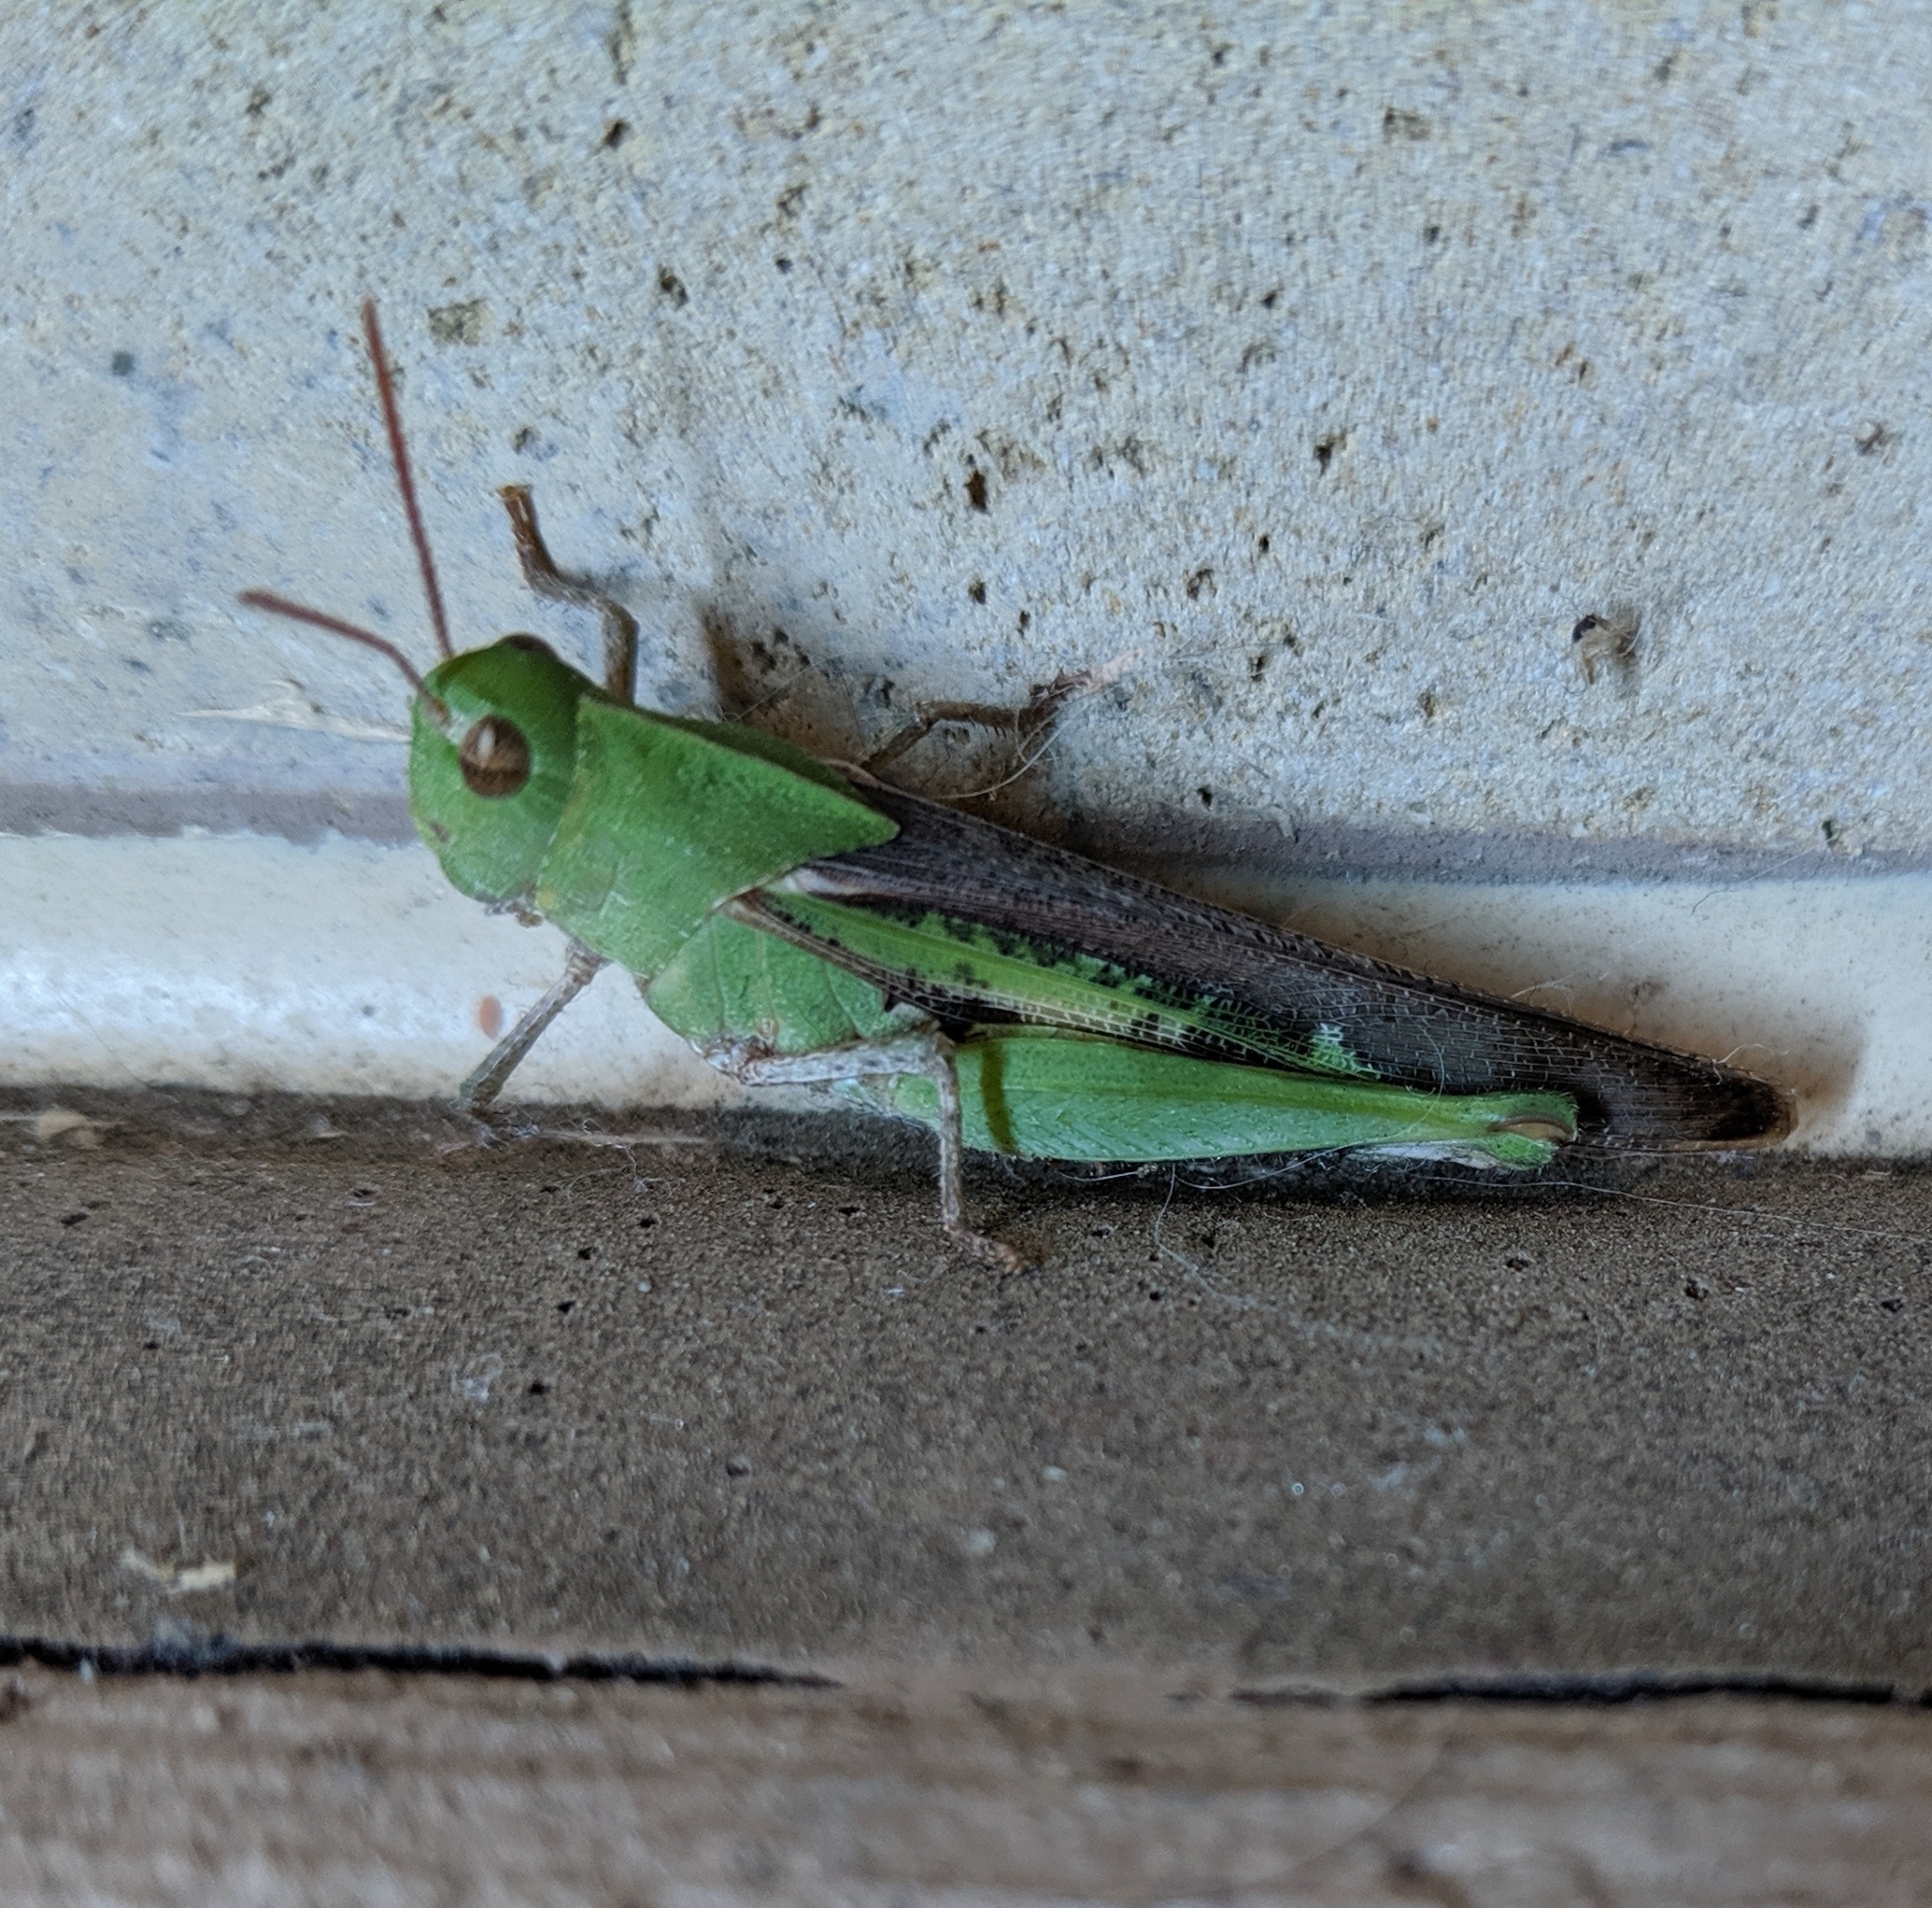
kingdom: Animalia
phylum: Arthropoda
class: Insecta
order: Orthoptera
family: Acrididae
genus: Chortophaga
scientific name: Chortophaga viridifasciata
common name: Green-striped grasshopper
